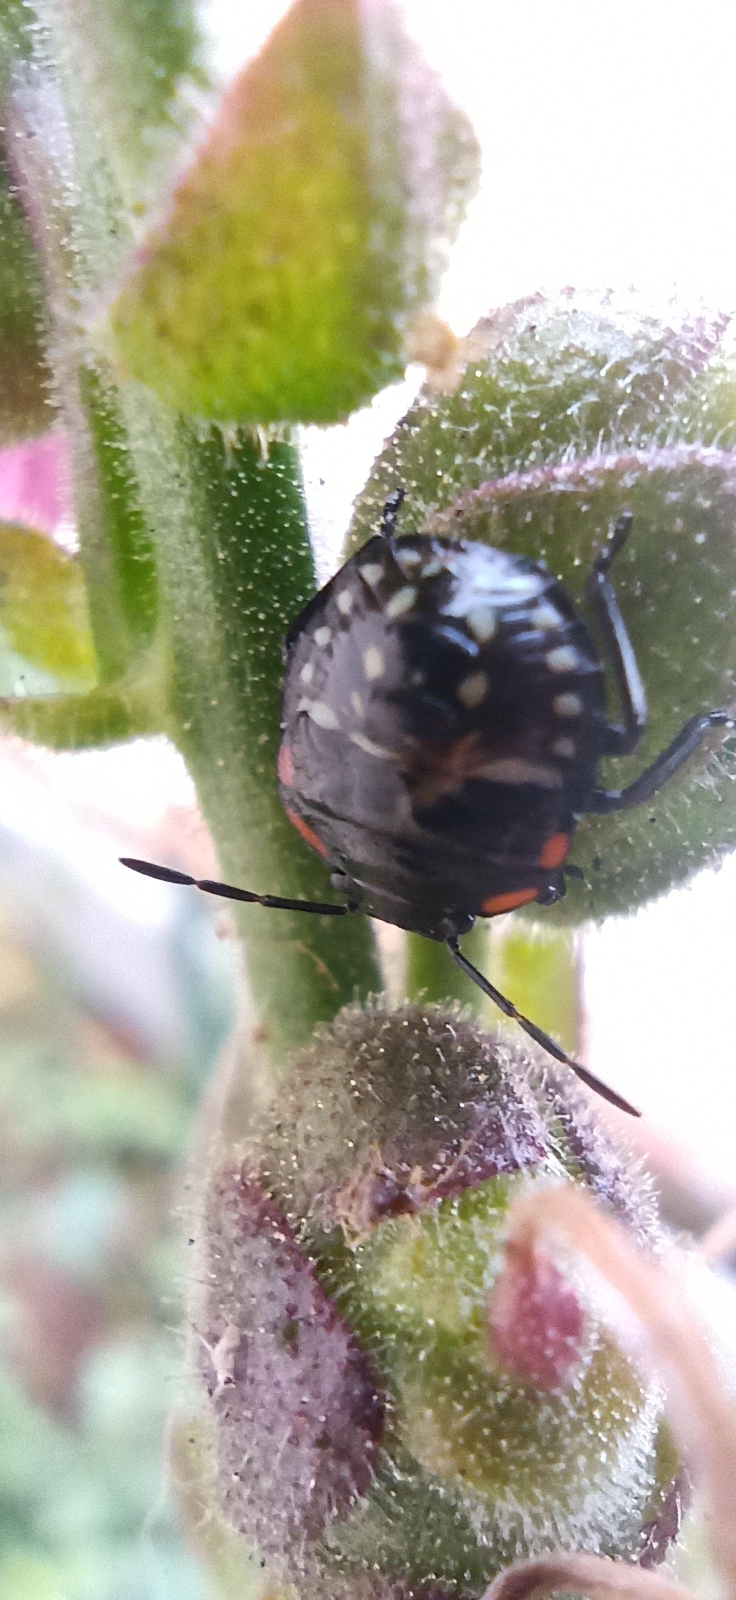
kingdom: Animalia
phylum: Arthropoda
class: Insecta
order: Hemiptera
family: Pentatomidae
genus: Nezara
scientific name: Nezara viridula
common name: Southern green stink bug
